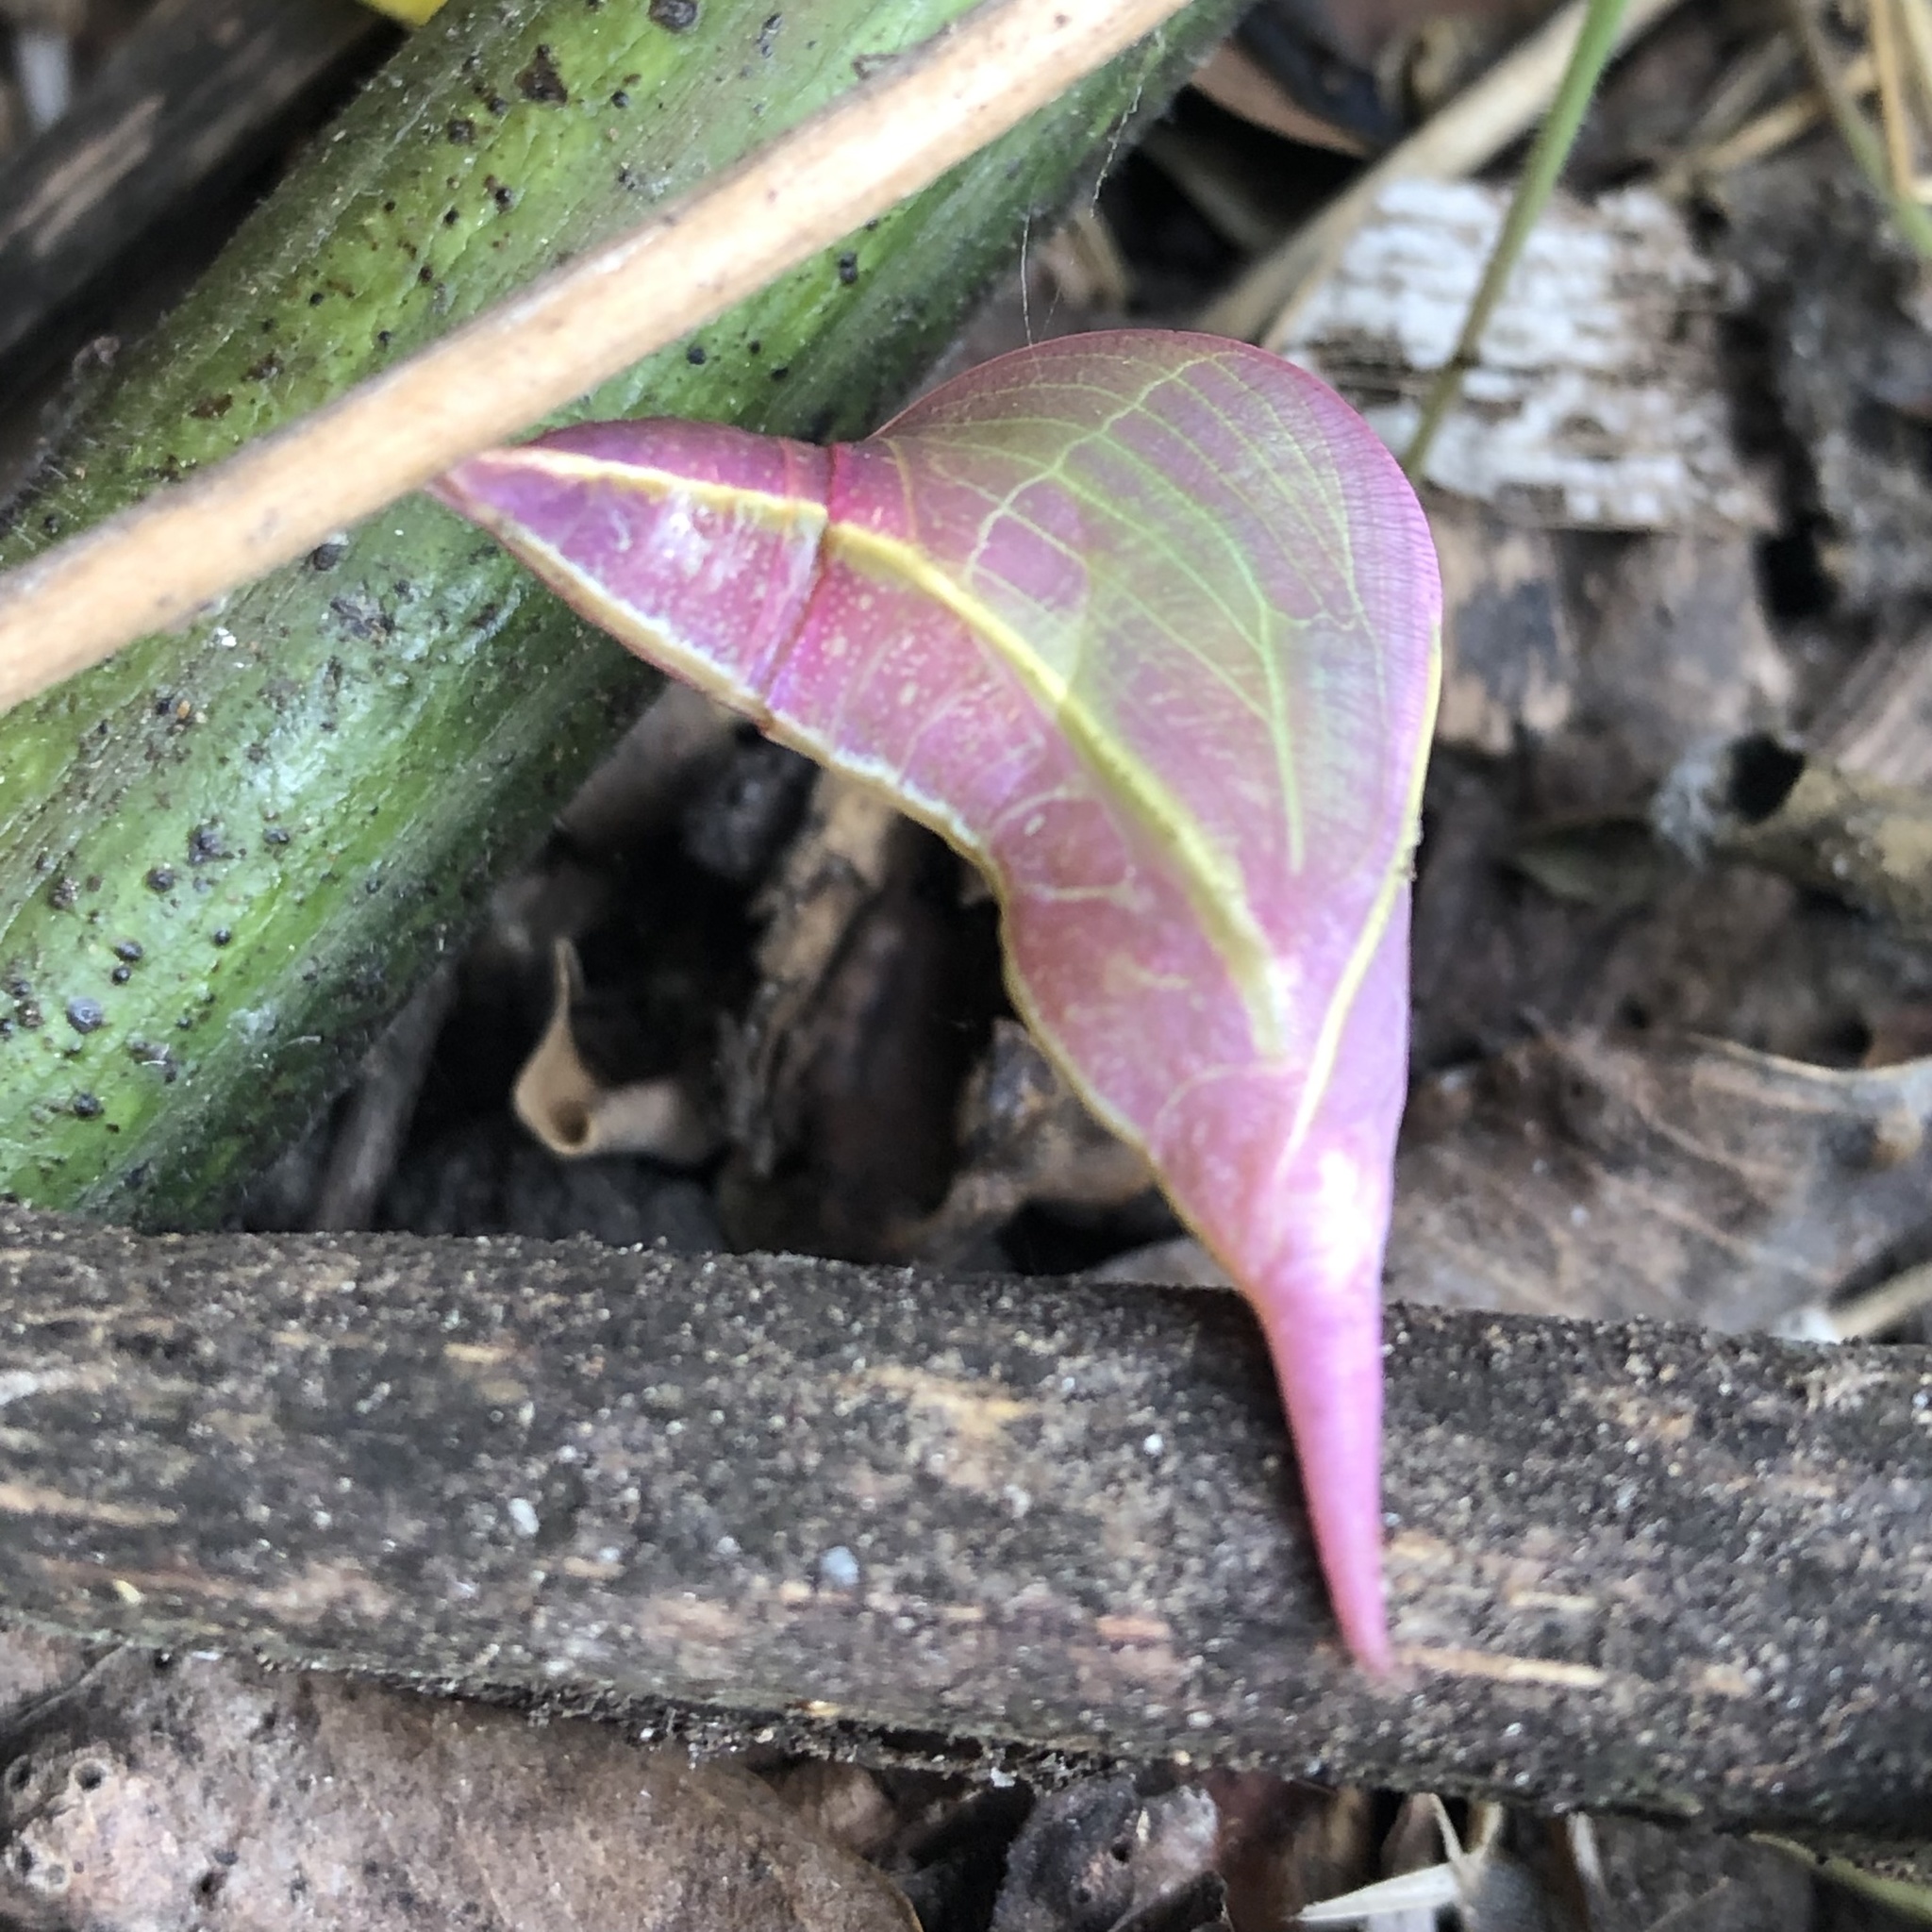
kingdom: Animalia
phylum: Arthropoda
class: Insecta
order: Lepidoptera
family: Pieridae
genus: Phoebis
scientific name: Phoebis sennae
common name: Cloudless sulphur
